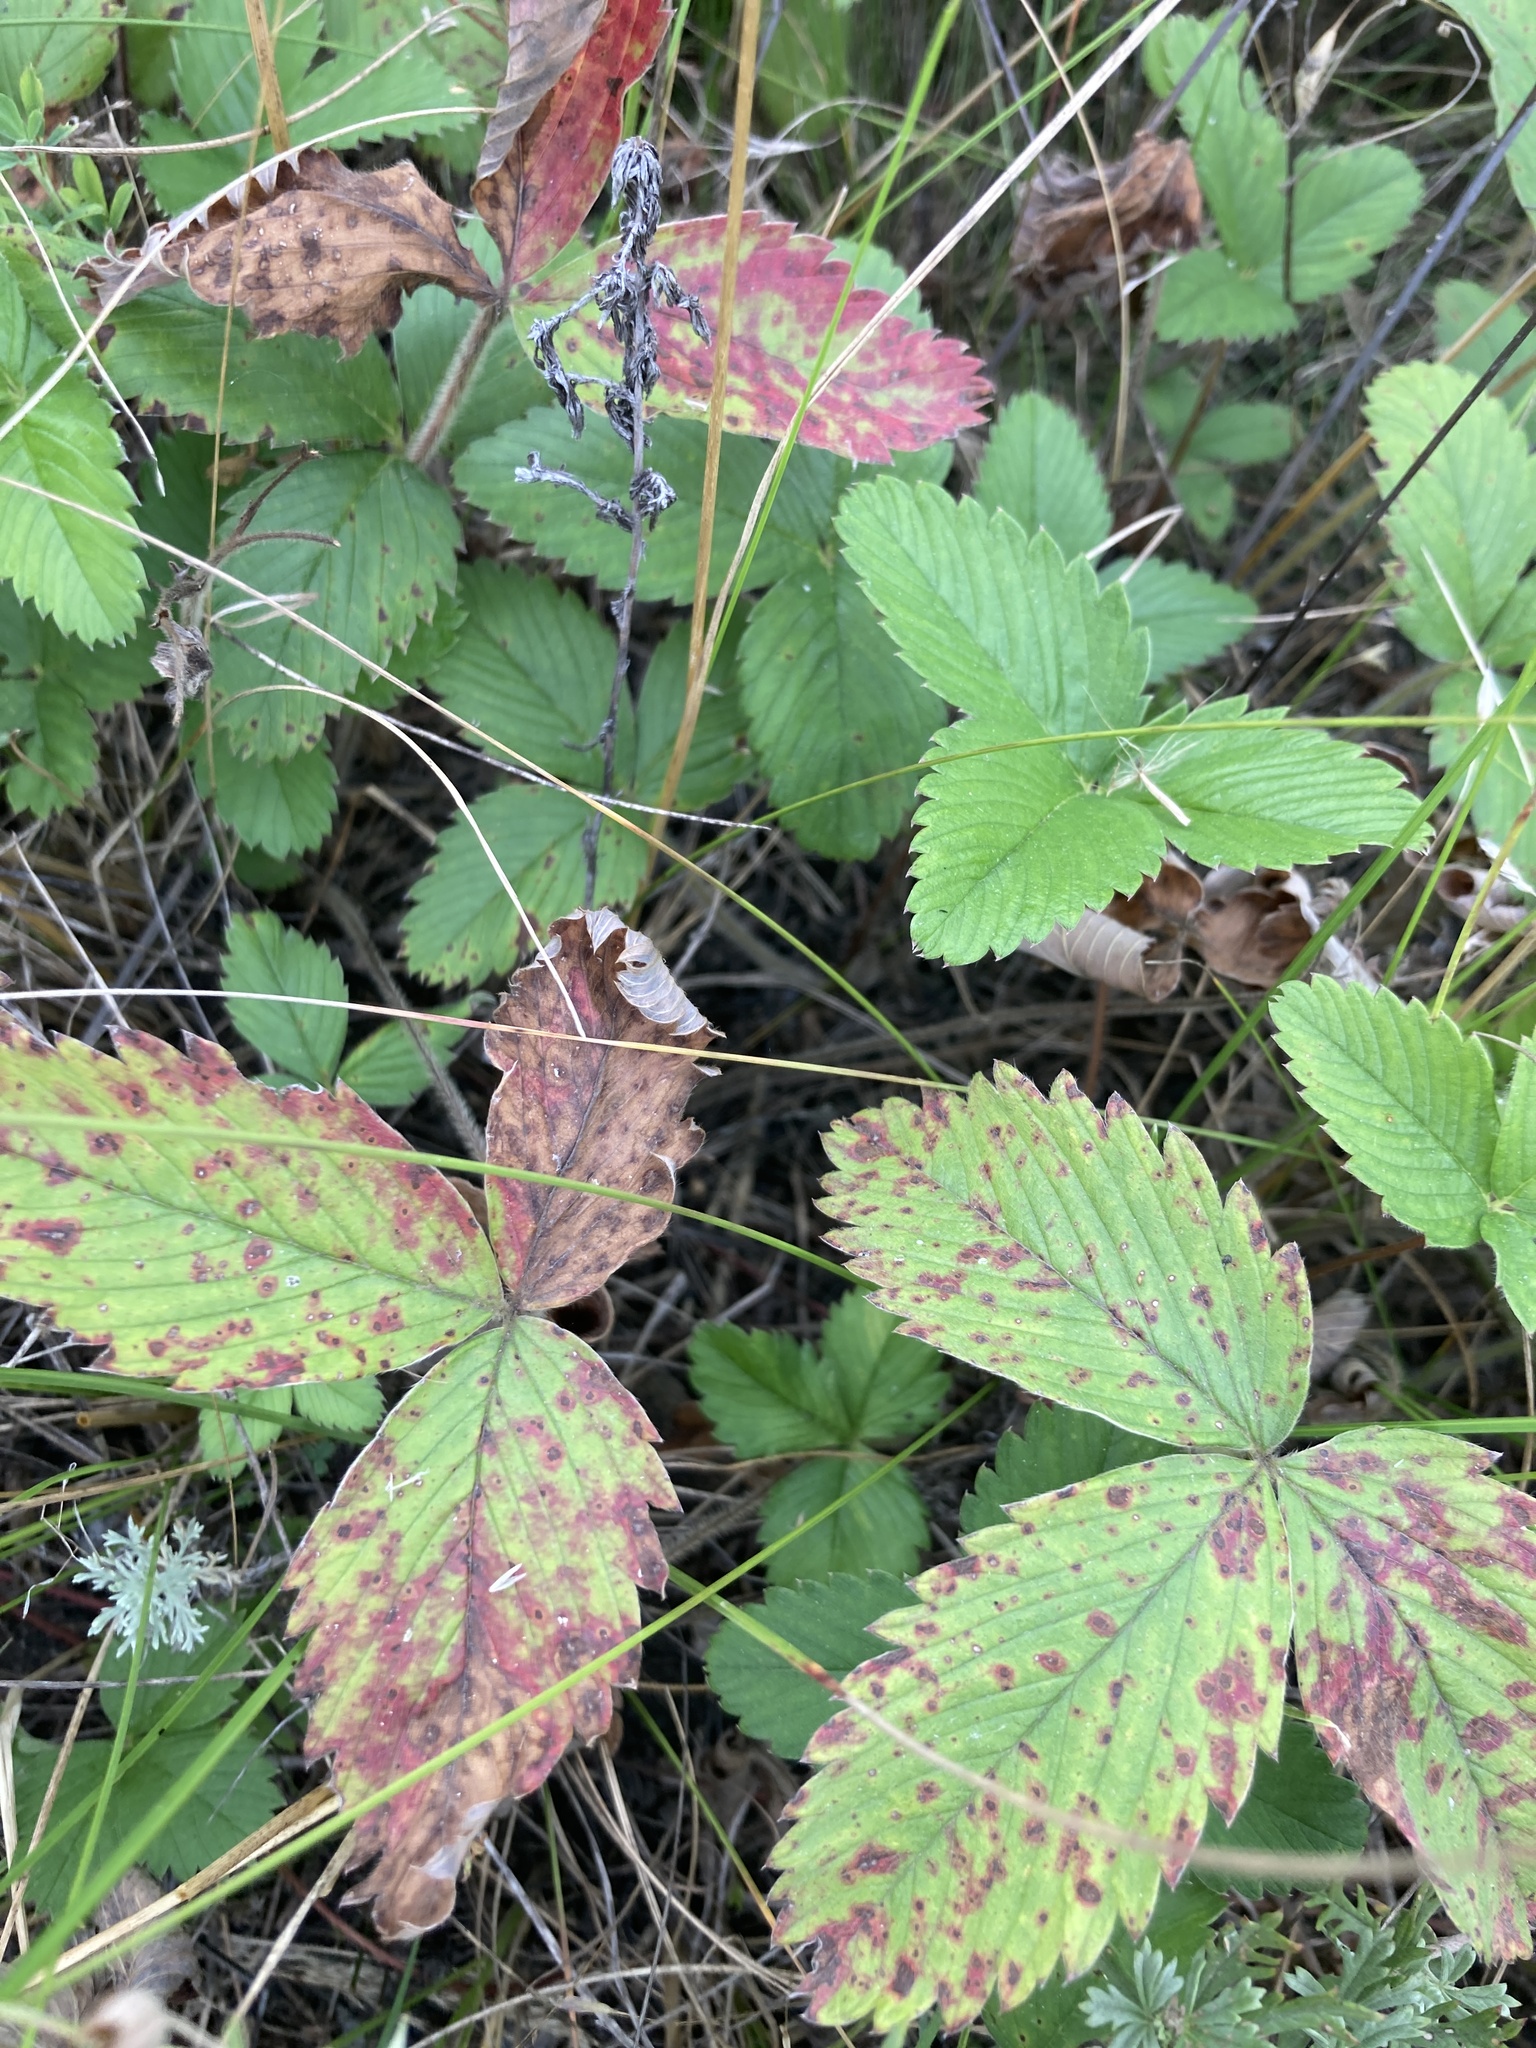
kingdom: Plantae
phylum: Tracheophyta
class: Magnoliopsida
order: Rosales
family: Rosaceae
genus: Fragaria
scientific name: Fragaria viridis
